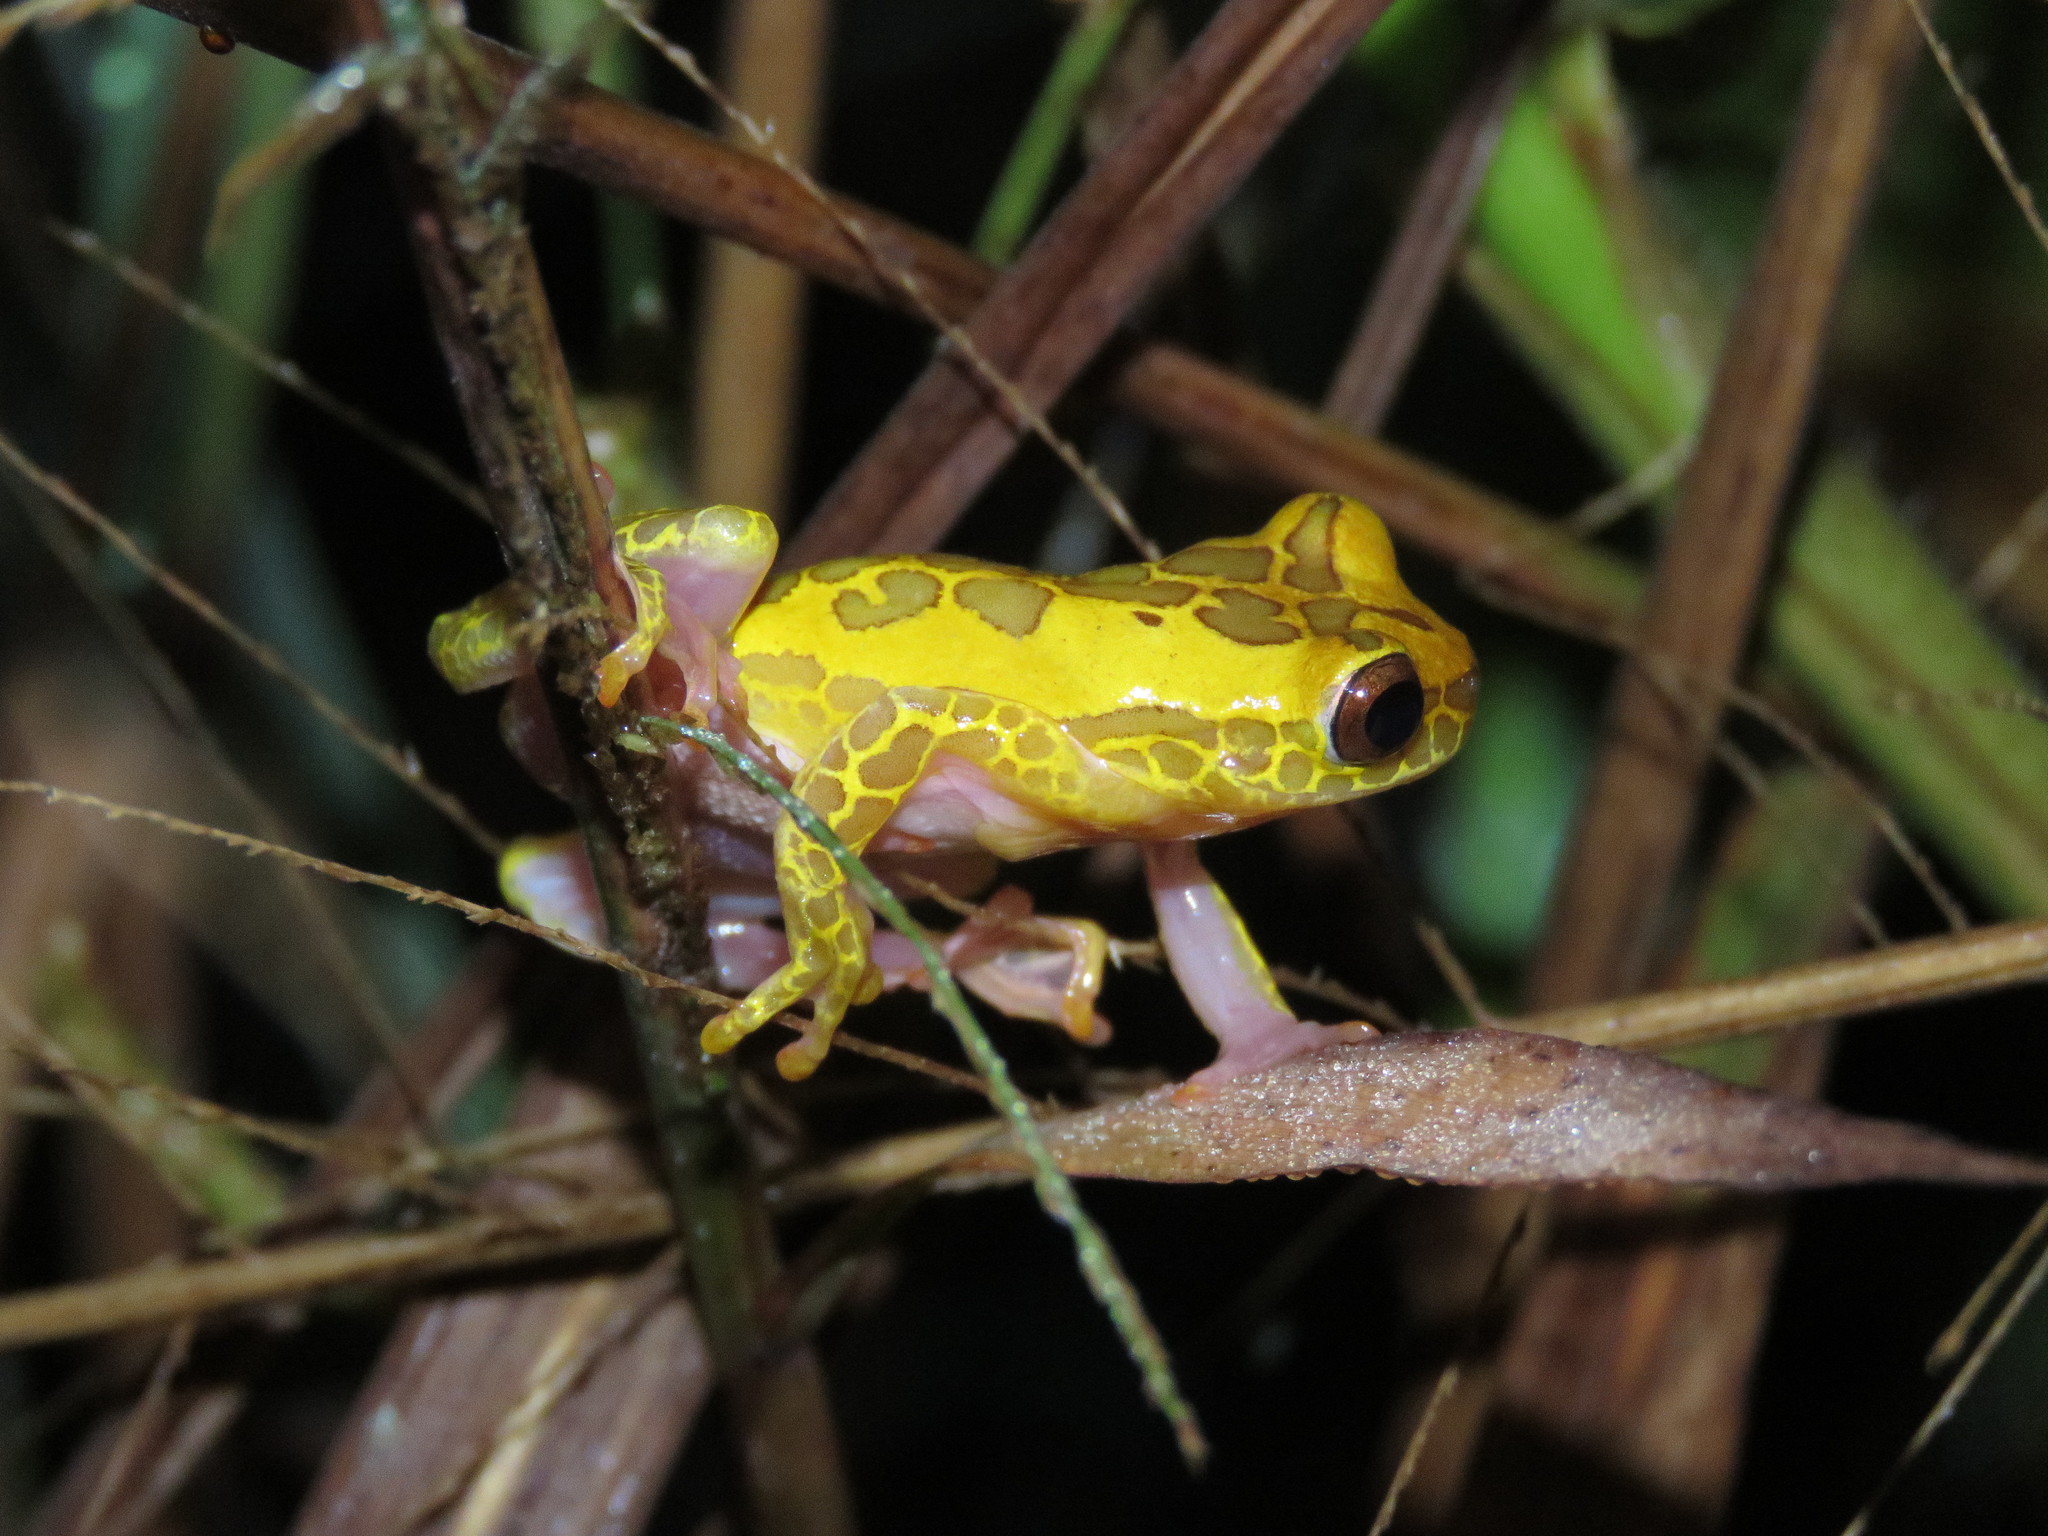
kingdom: Animalia
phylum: Chordata
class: Amphibia
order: Anura
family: Hylidae
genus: Dendropsophus
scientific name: Dendropsophus arndti
